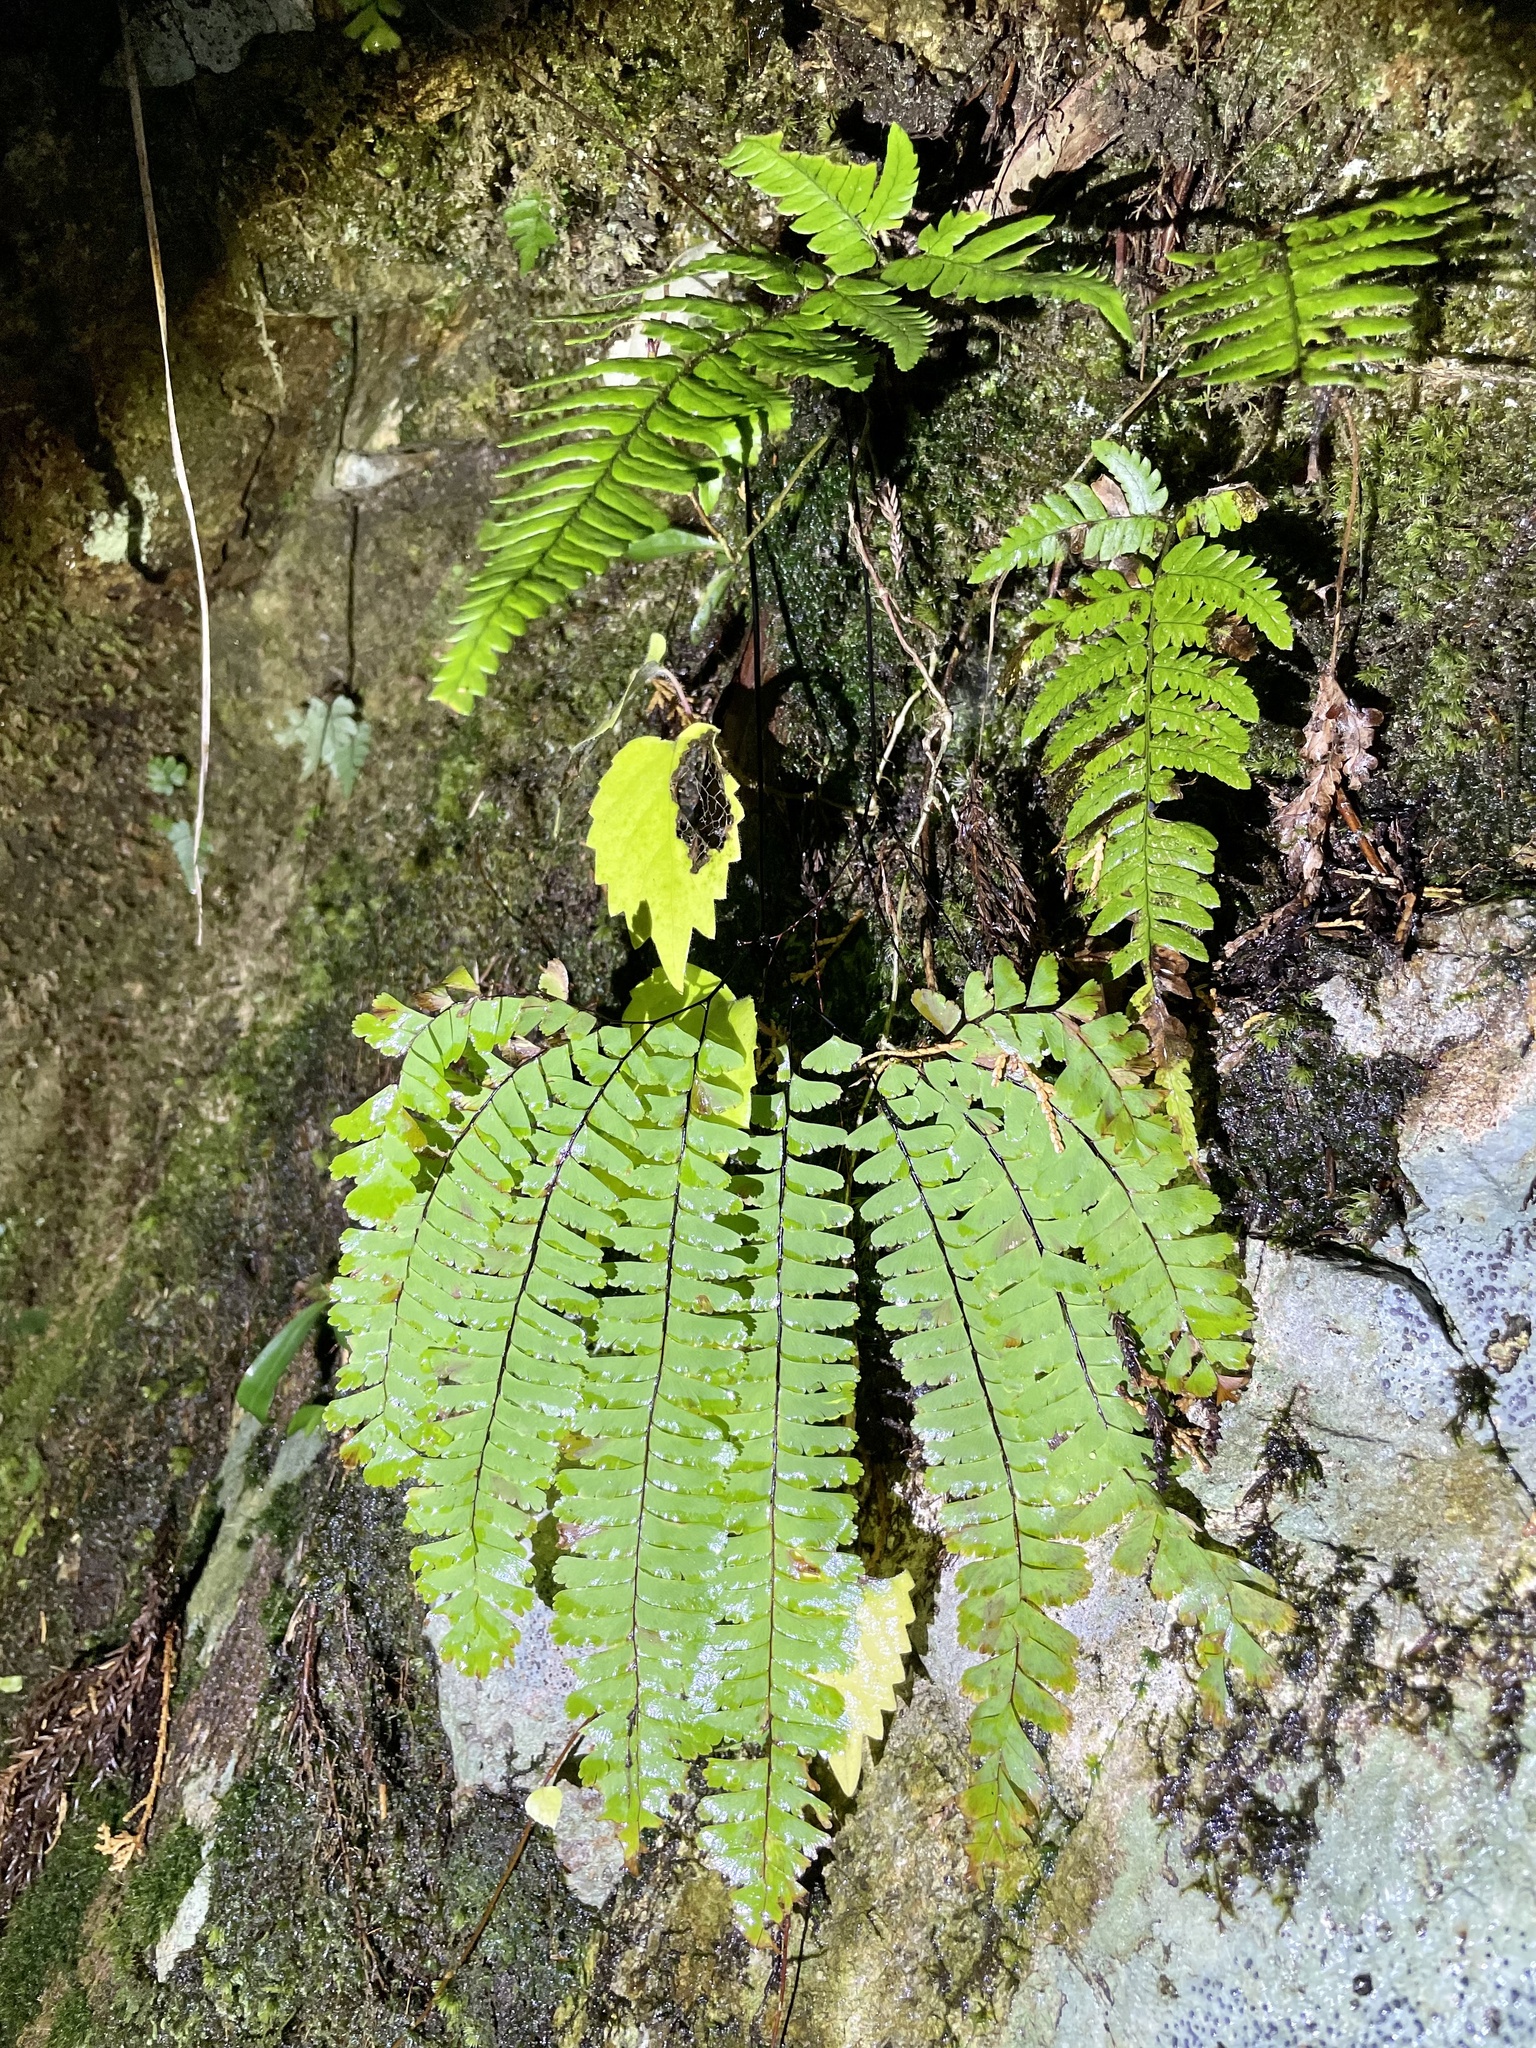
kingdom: Plantae
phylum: Tracheophyta
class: Polypodiopsida
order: Polypodiales
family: Pteridaceae
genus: Adiantum
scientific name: Adiantum pedatum
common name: Five-finger fern
